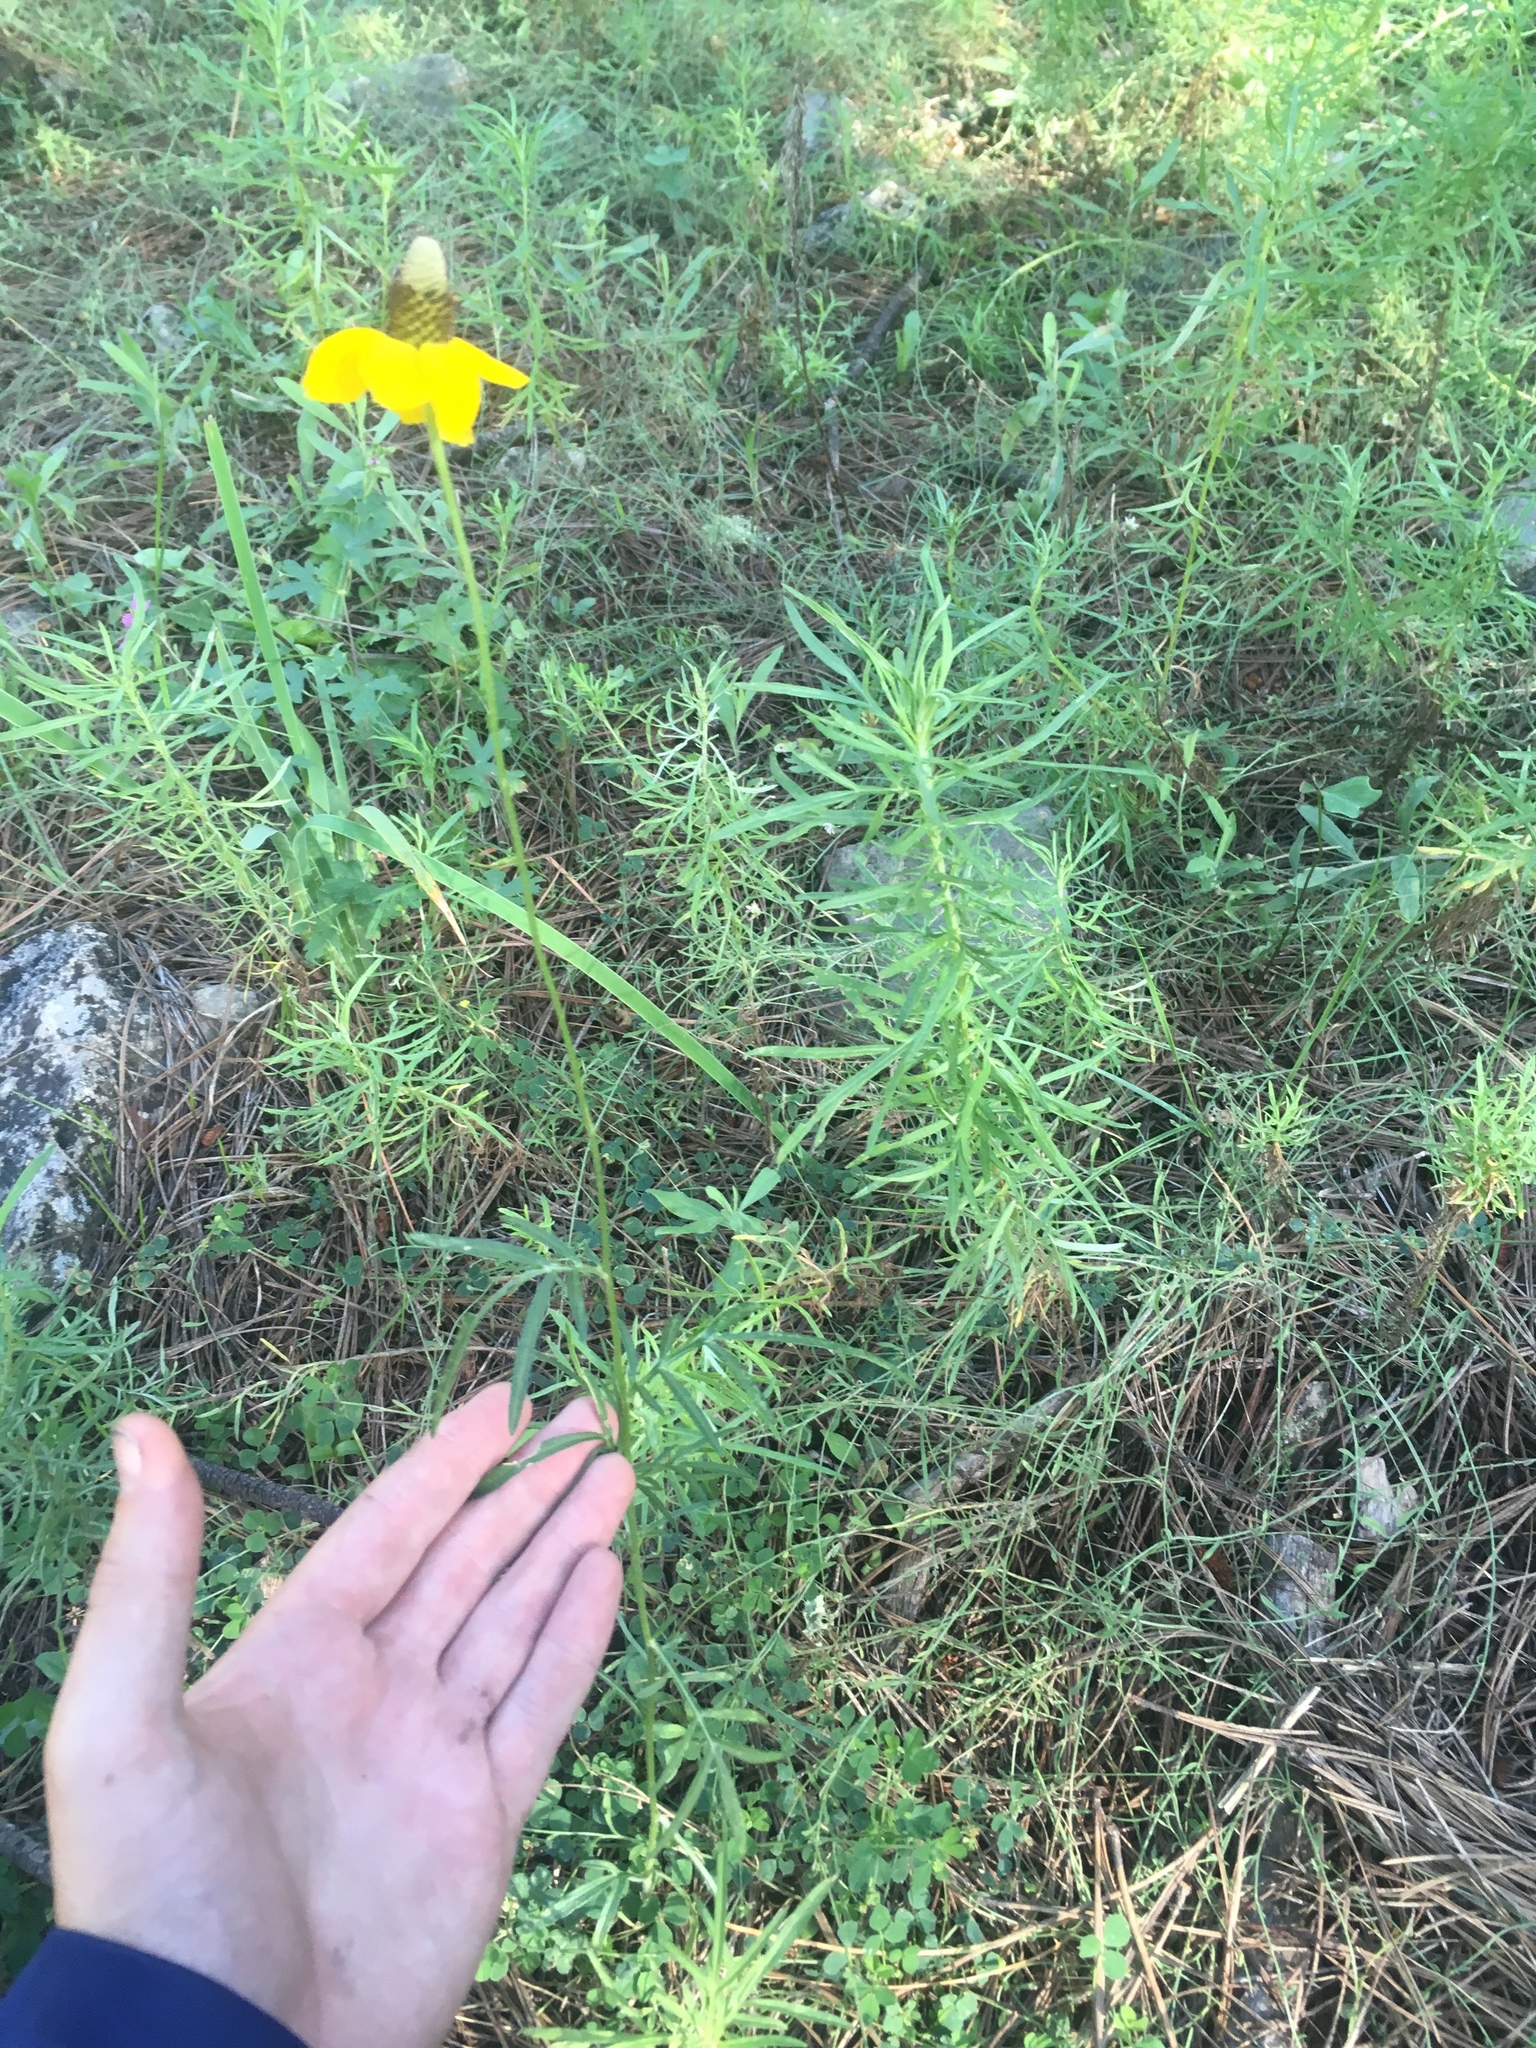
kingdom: Plantae
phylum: Tracheophyta
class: Magnoliopsida
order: Asterales
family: Asteraceae
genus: Ratibida
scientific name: Ratibida columnifera
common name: Prairie coneflower
